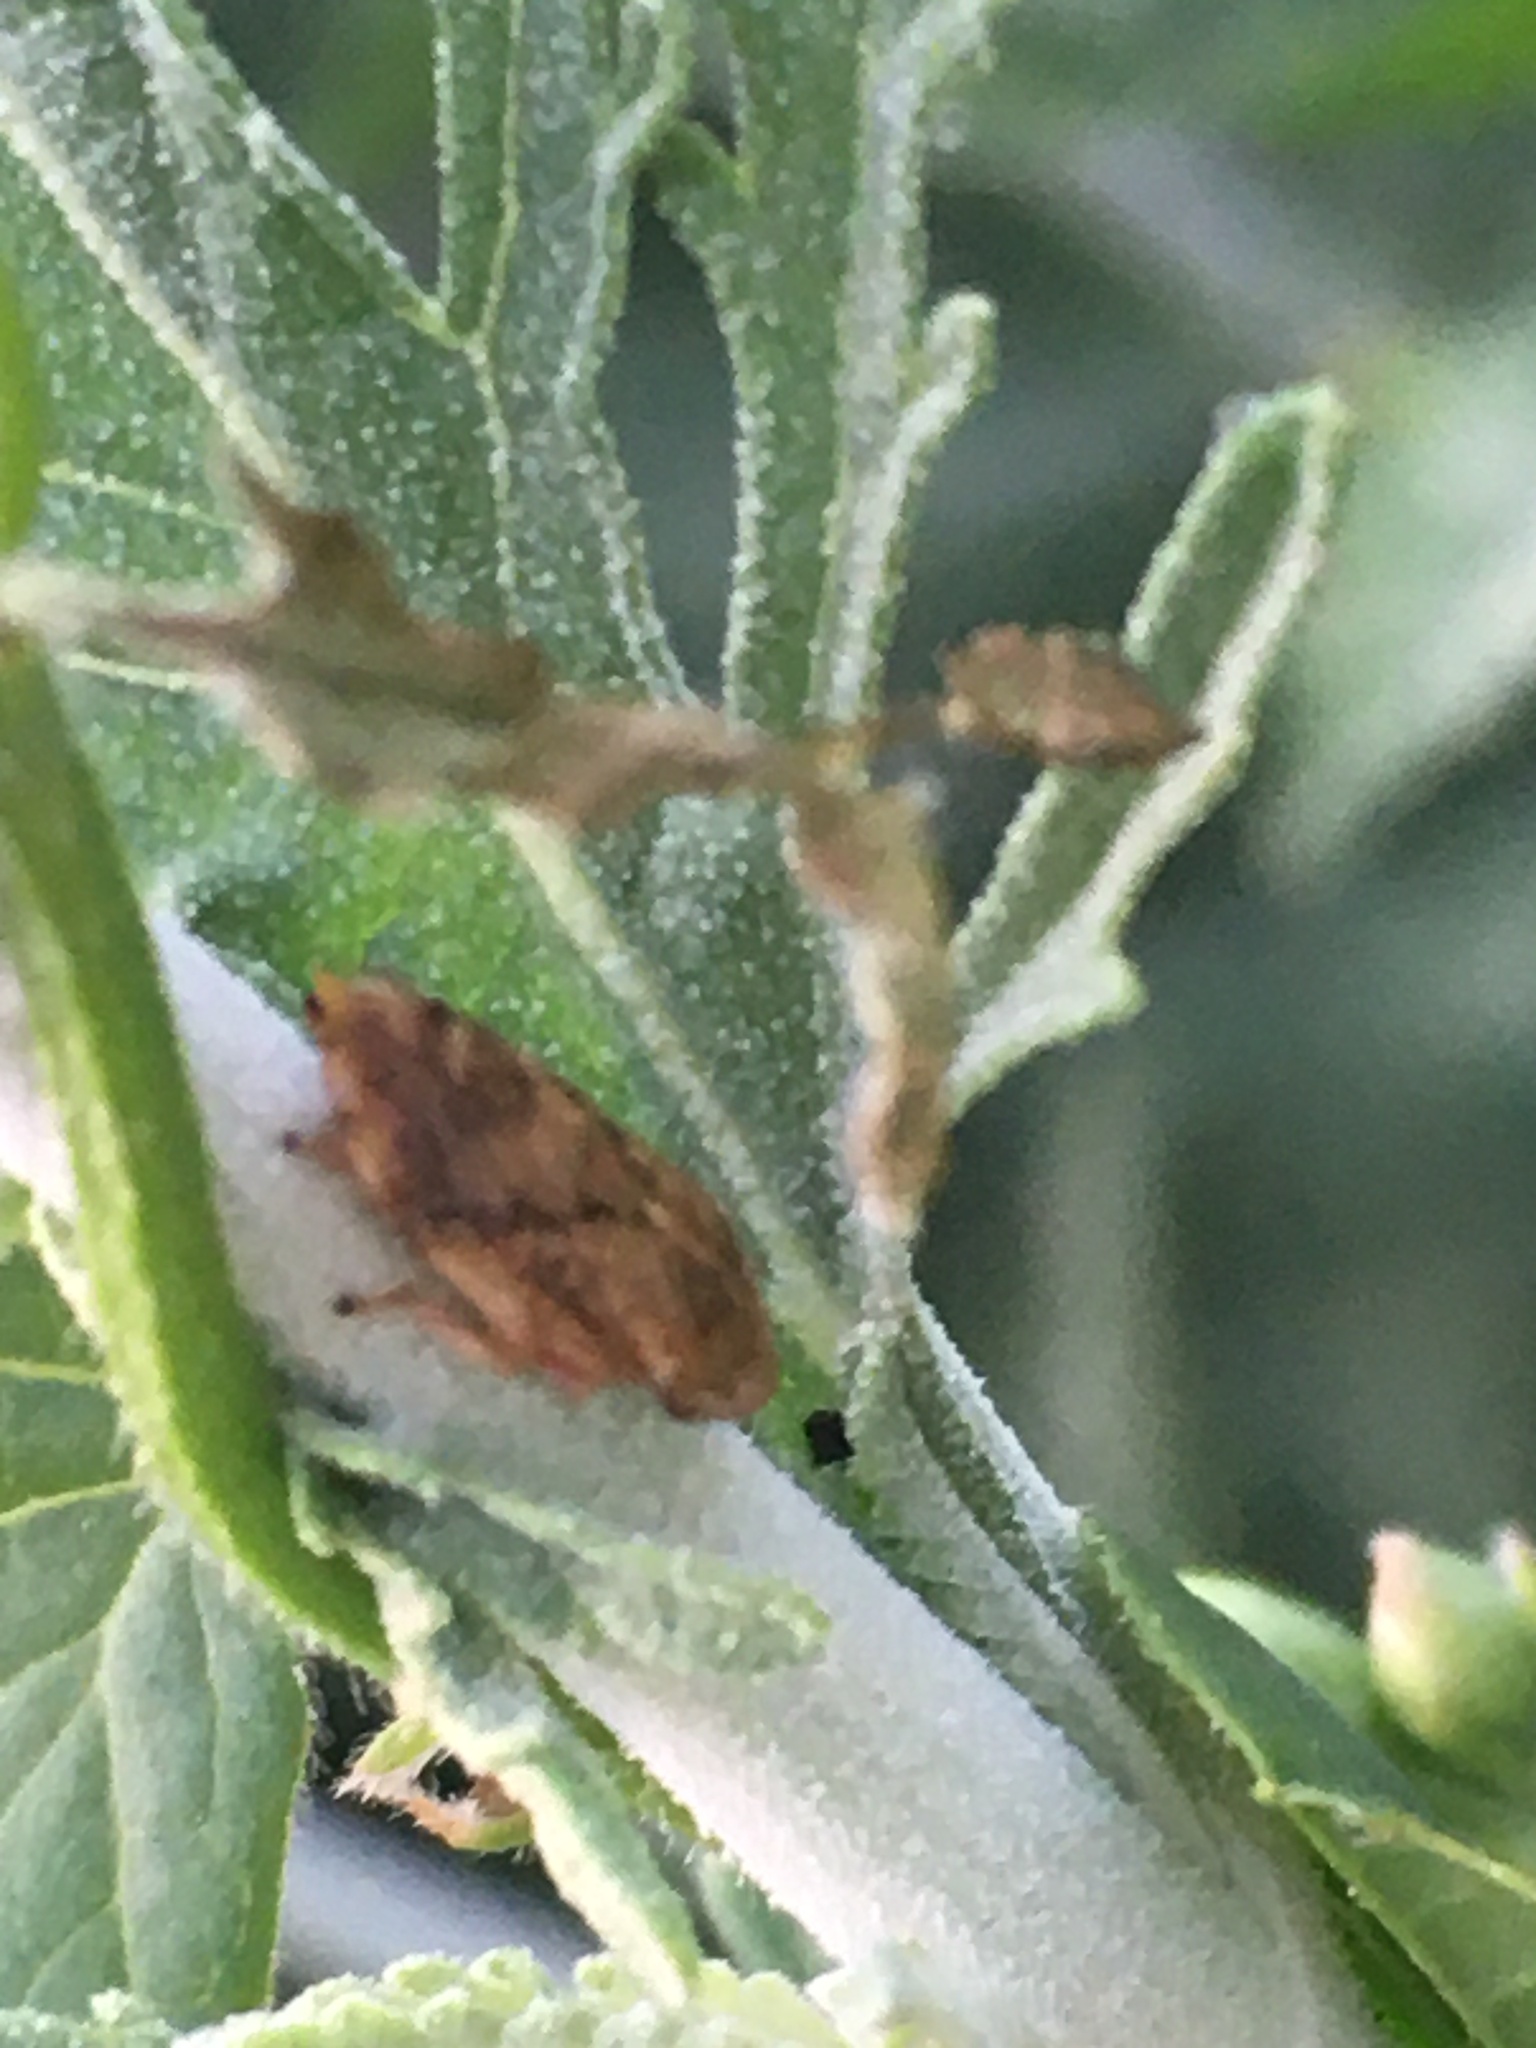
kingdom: Animalia
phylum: Arthropoda
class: Insecta
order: Hemiptera
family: Aphrophoridae
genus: Philaenus
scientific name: Philaenus spumarius
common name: Meadow spittlebug
